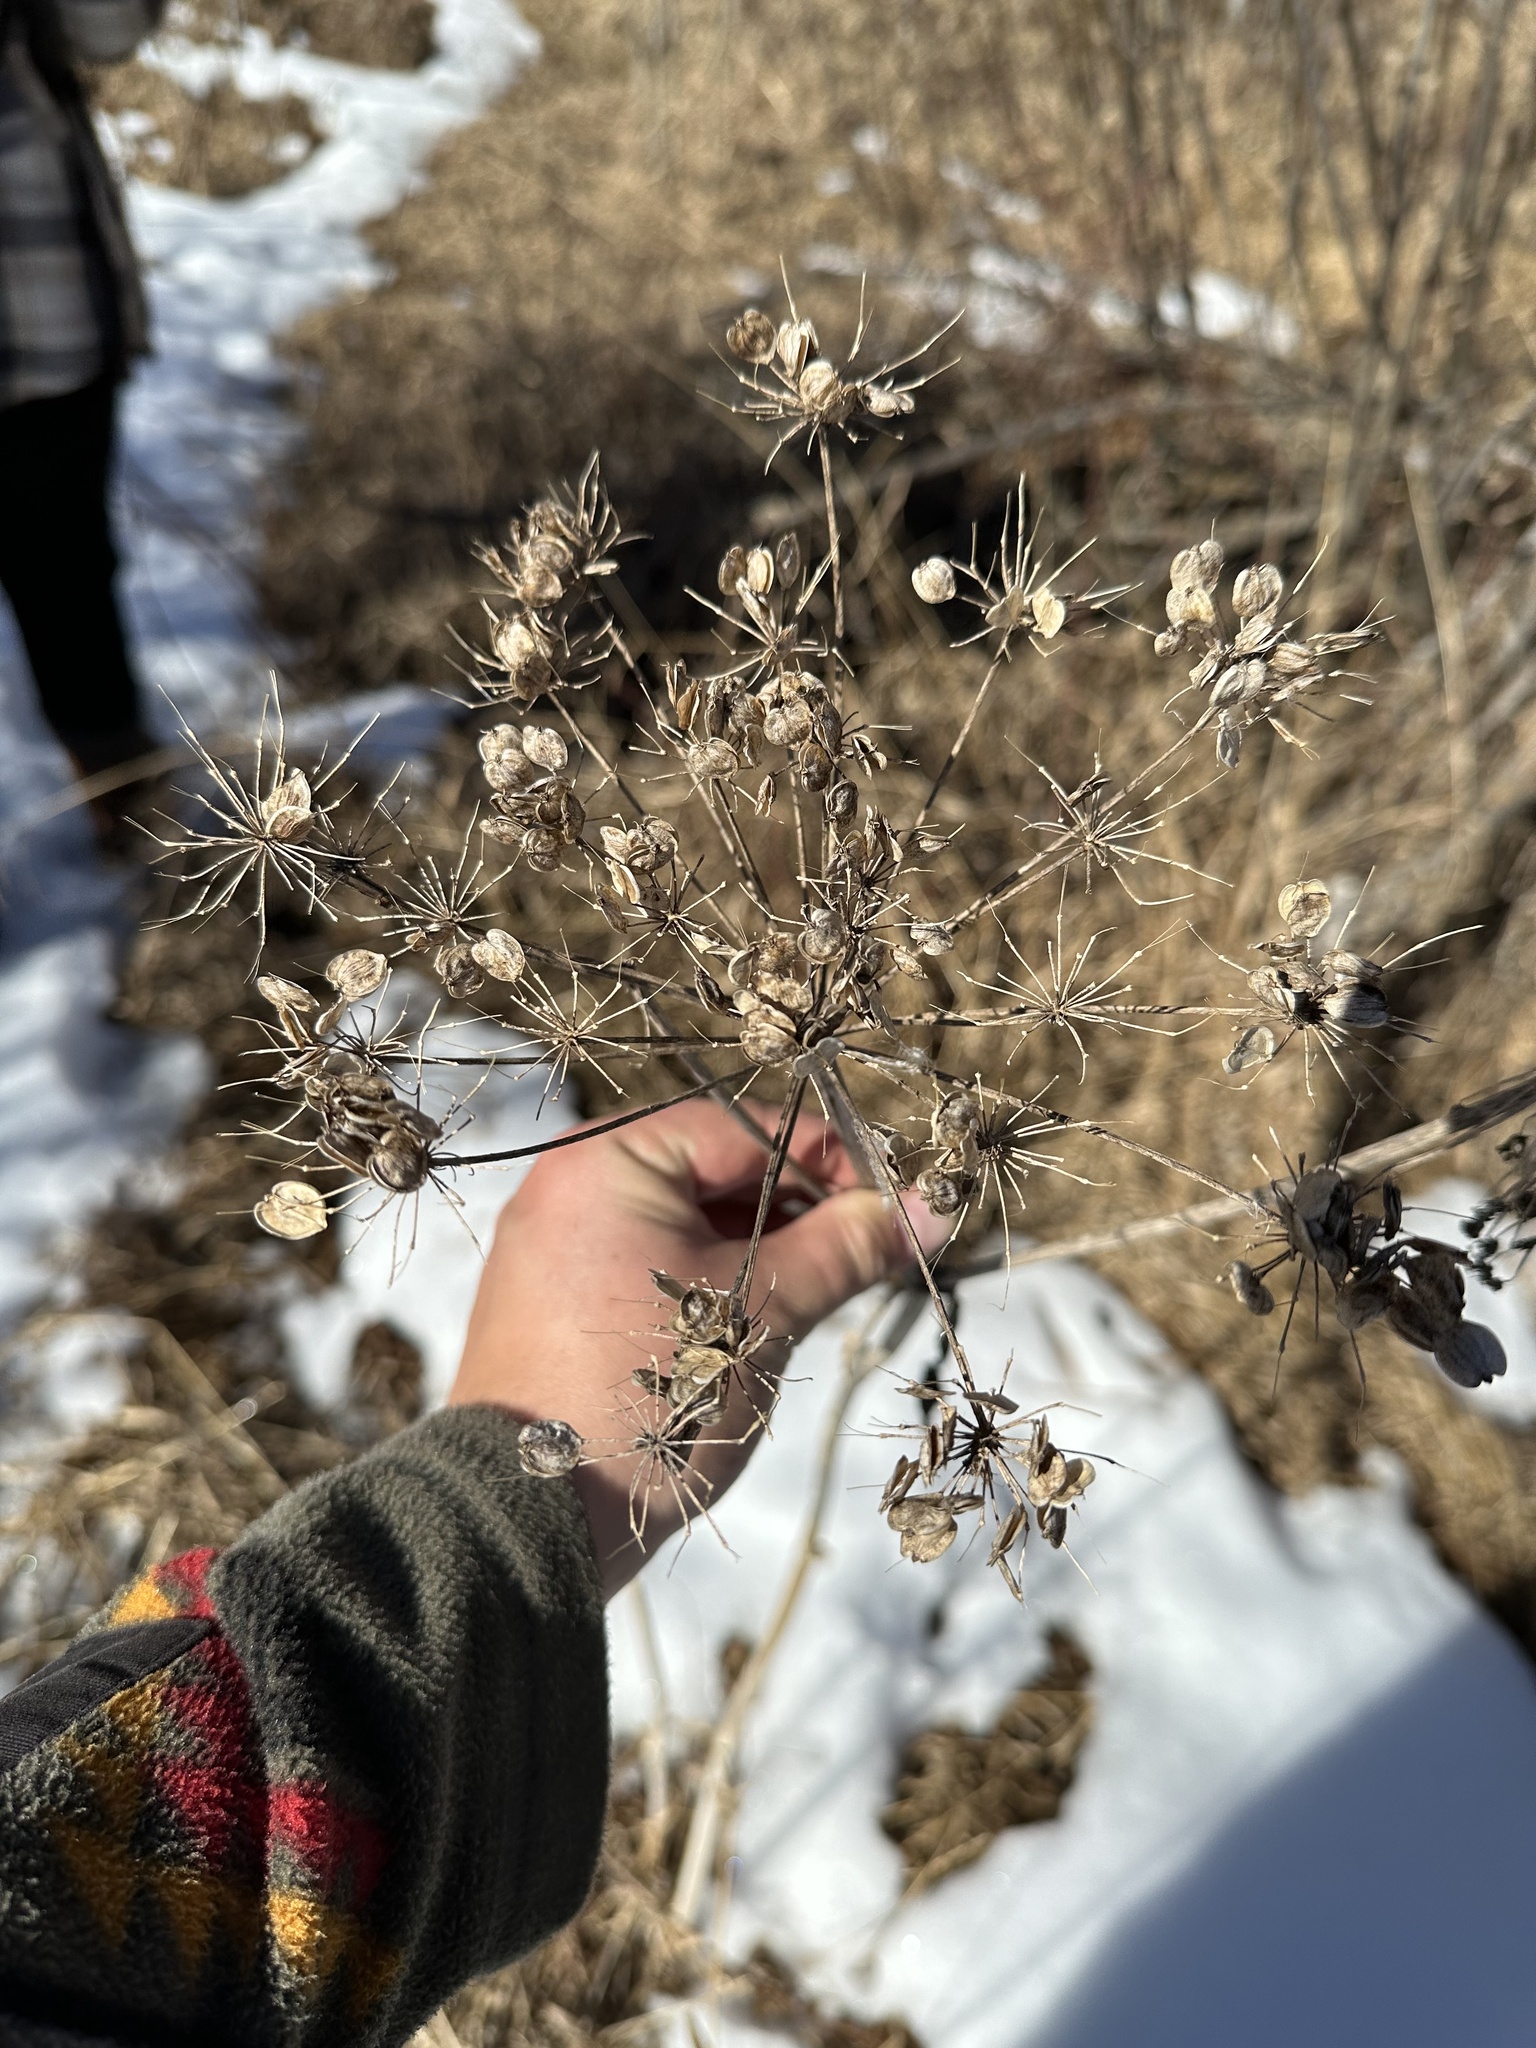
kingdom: Plantae
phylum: Tracheophyta
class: Magnoliopsida
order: Apiales
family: Apiaceae
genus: Heracleum
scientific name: Heracleum maximum
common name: American cow parsnip
